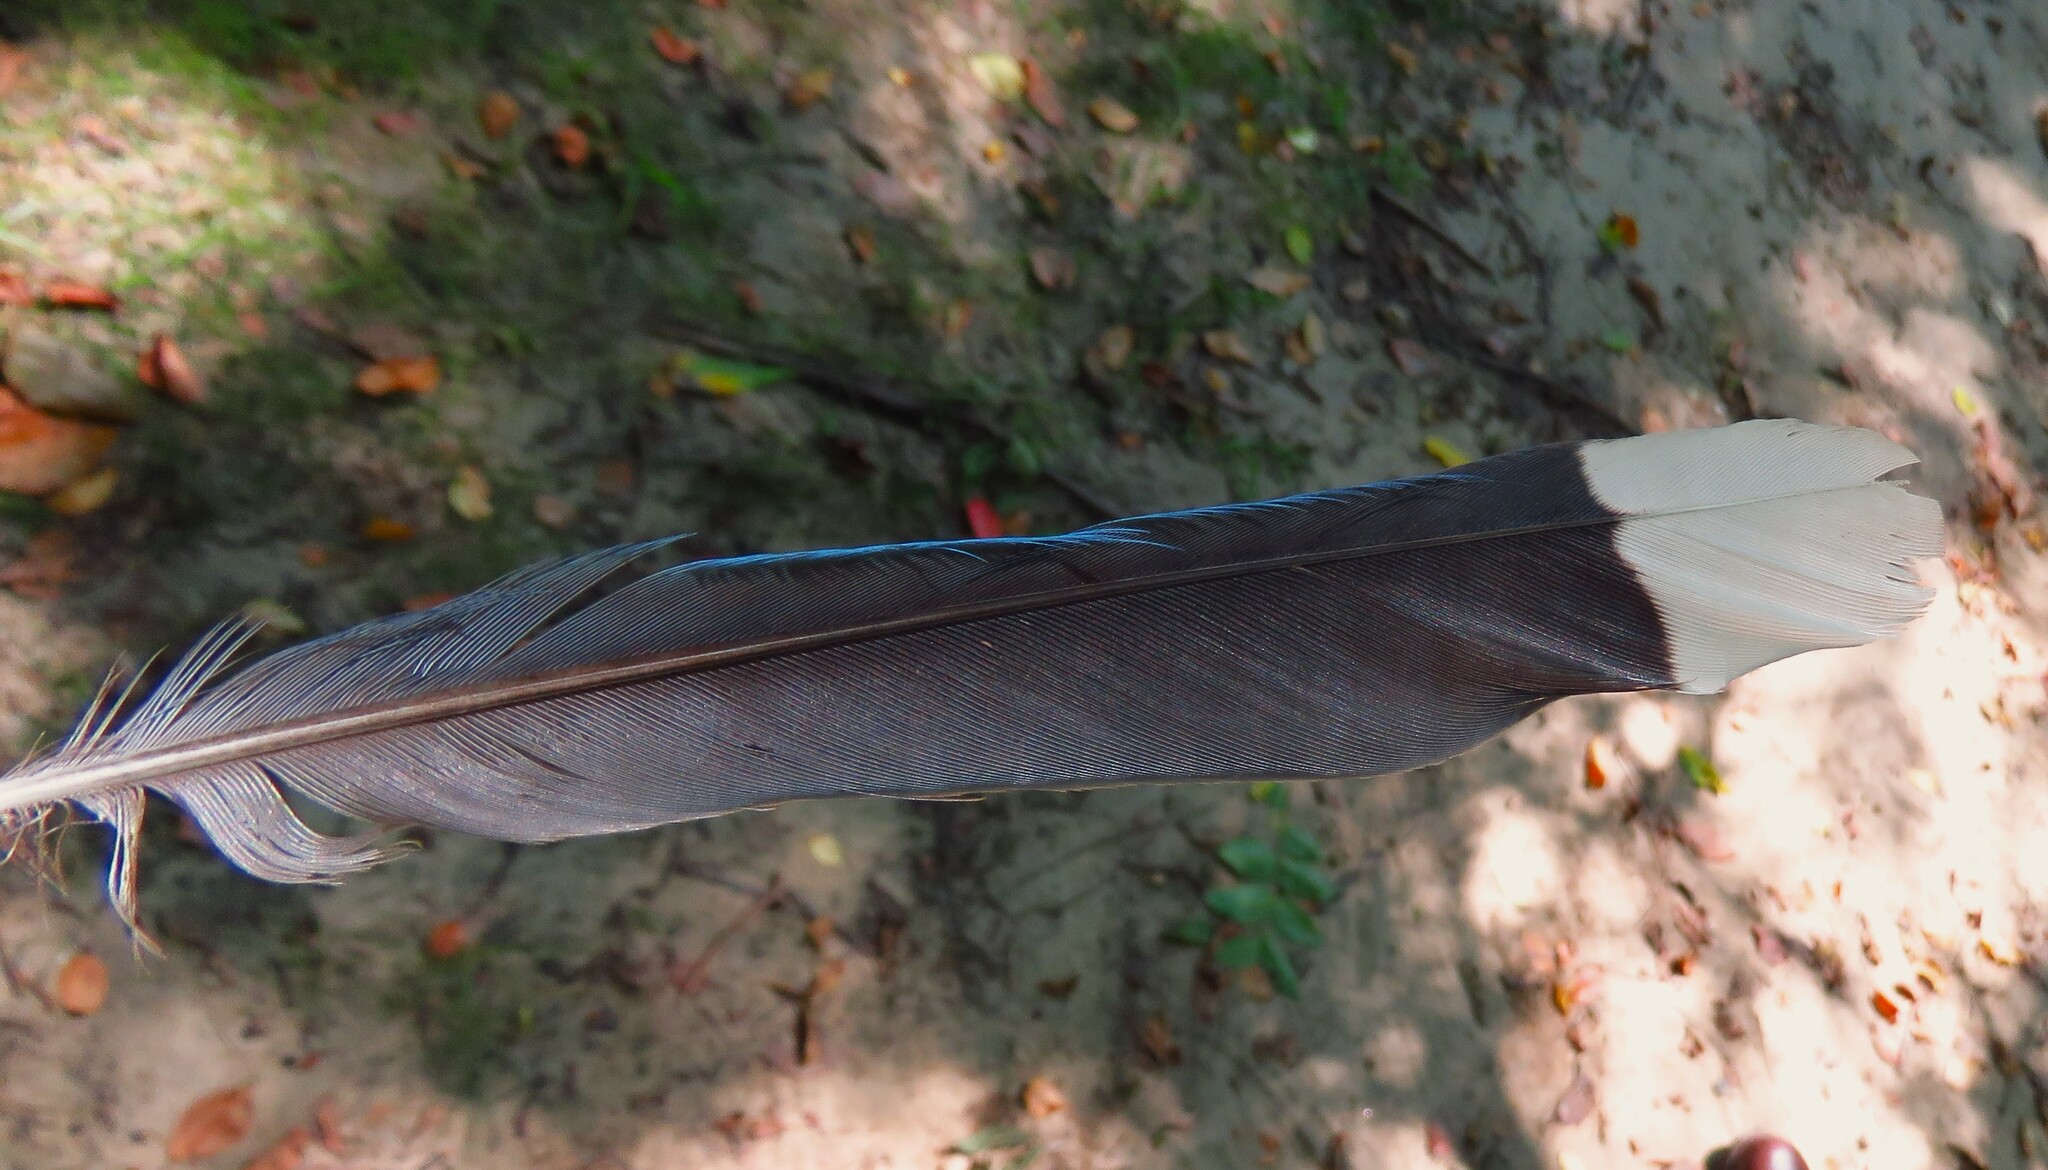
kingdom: Animalia
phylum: Chordata
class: Aves
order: Passeriformes
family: Corvidae
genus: Cyanocitta
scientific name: Cyanocitta cristata
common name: Blue jay
